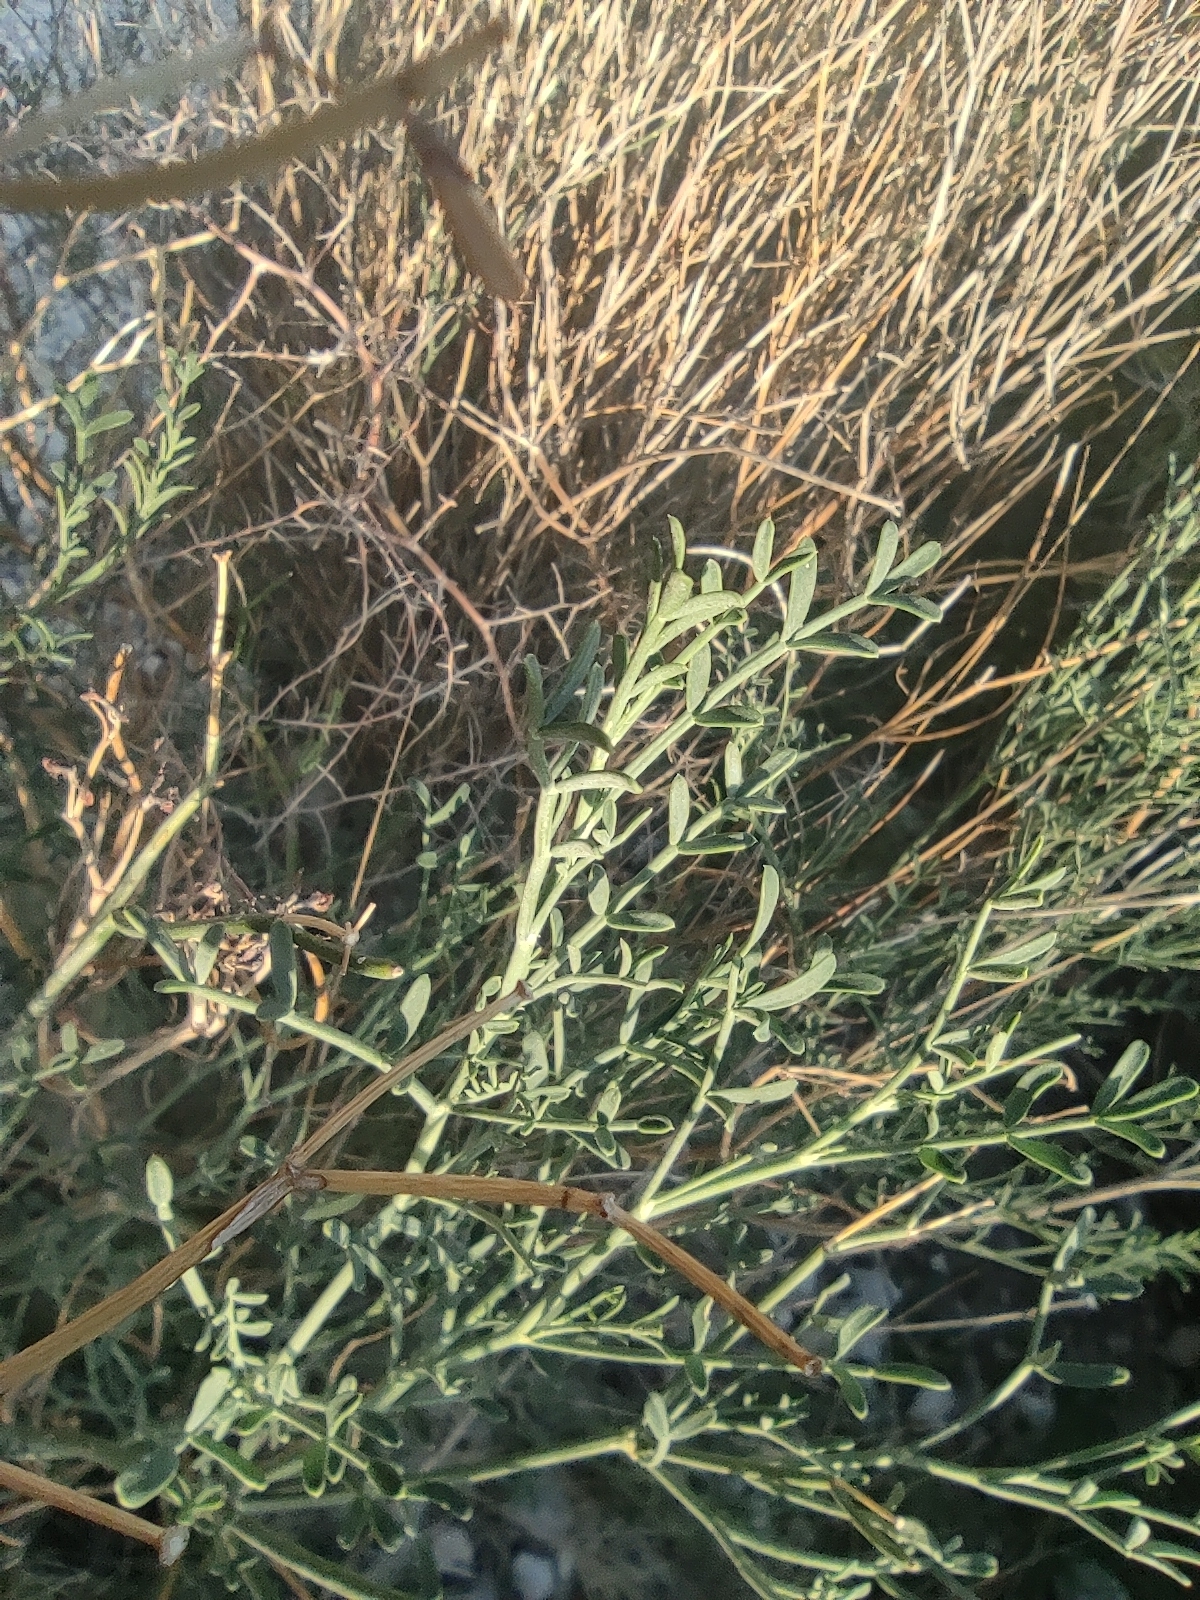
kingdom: Plantae
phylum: Tracheophyta
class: Magnoliopsida
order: Fabales
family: Fabaceae
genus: Coronilla
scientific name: Coronilla juncea
